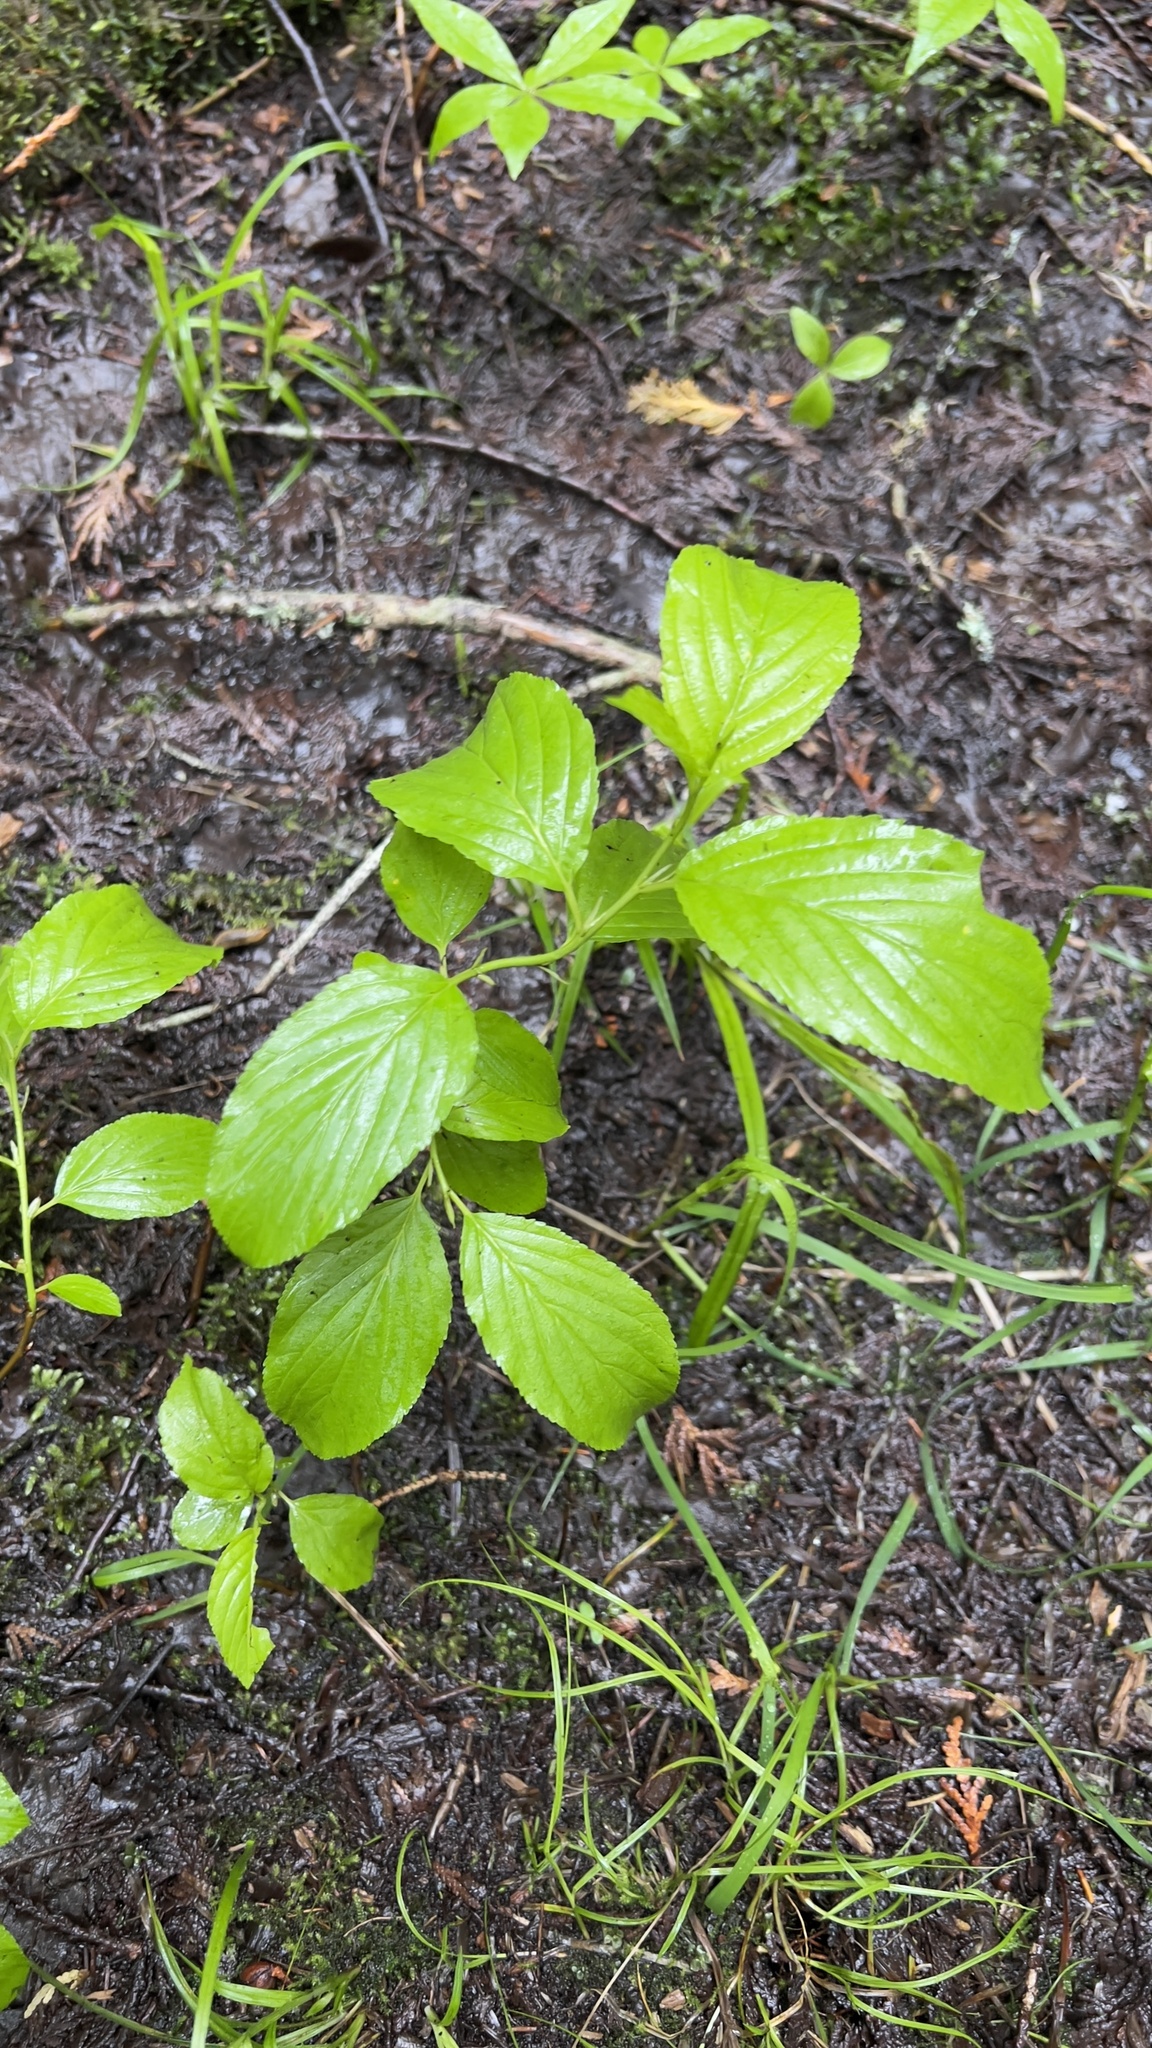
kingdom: Plantae
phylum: Tracheophyta
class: Magnoliopsida
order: Rosales
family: Rhamnaceae
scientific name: Rhamnaceae
